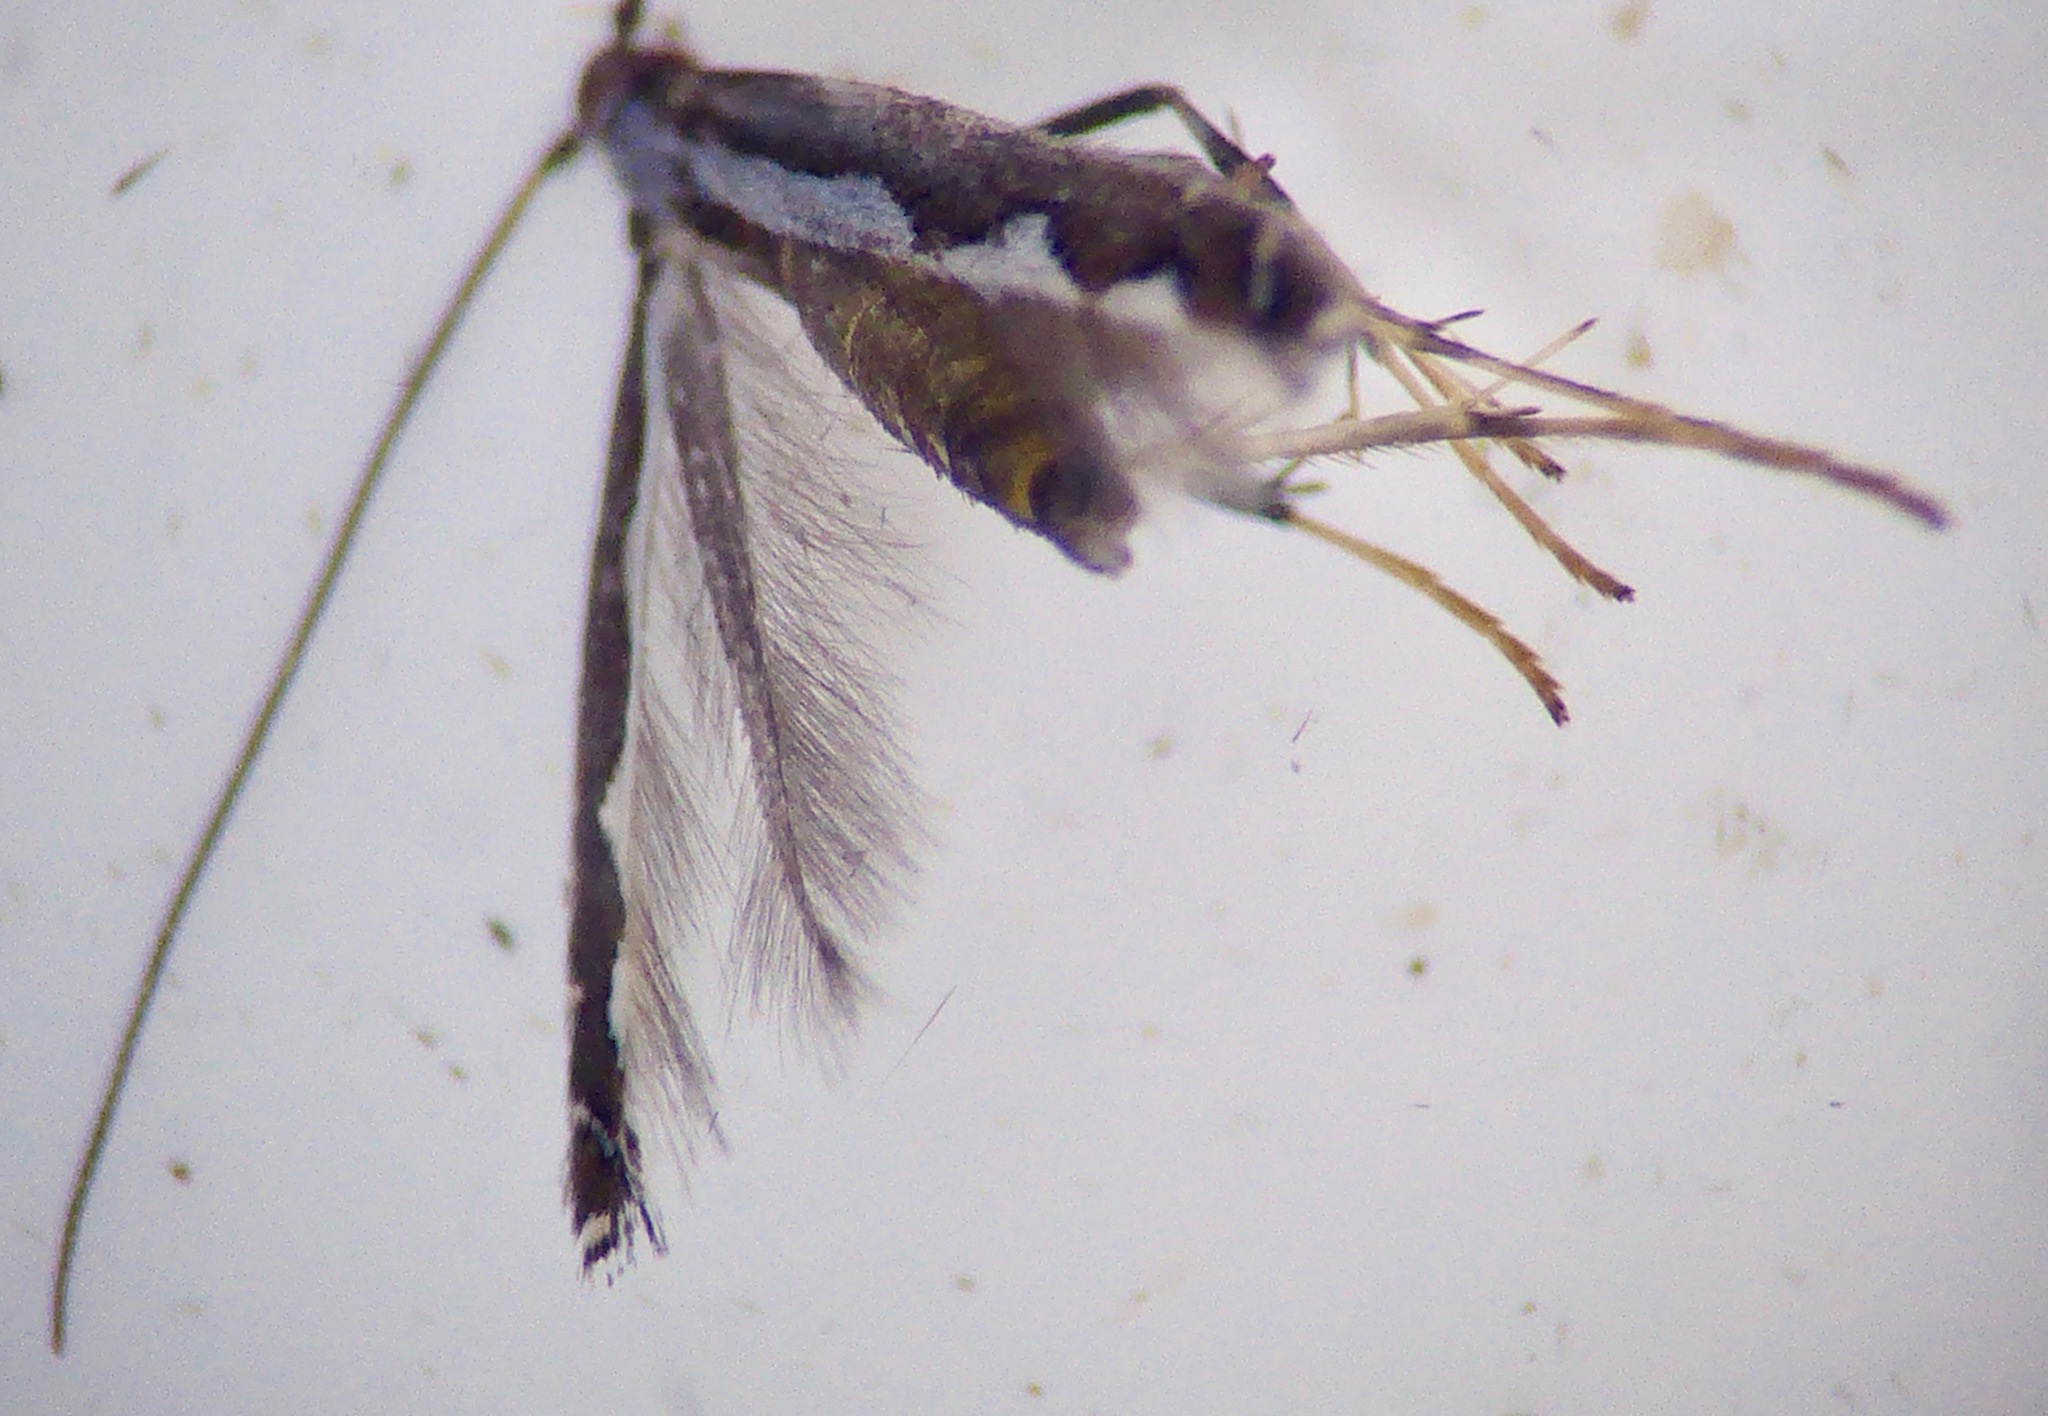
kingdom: Animalia
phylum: Arthropoda
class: Insecta
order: Lepidoptera
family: Plutellidae
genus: Plutella
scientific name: Plutella xylostella
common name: Diamond-back moth
